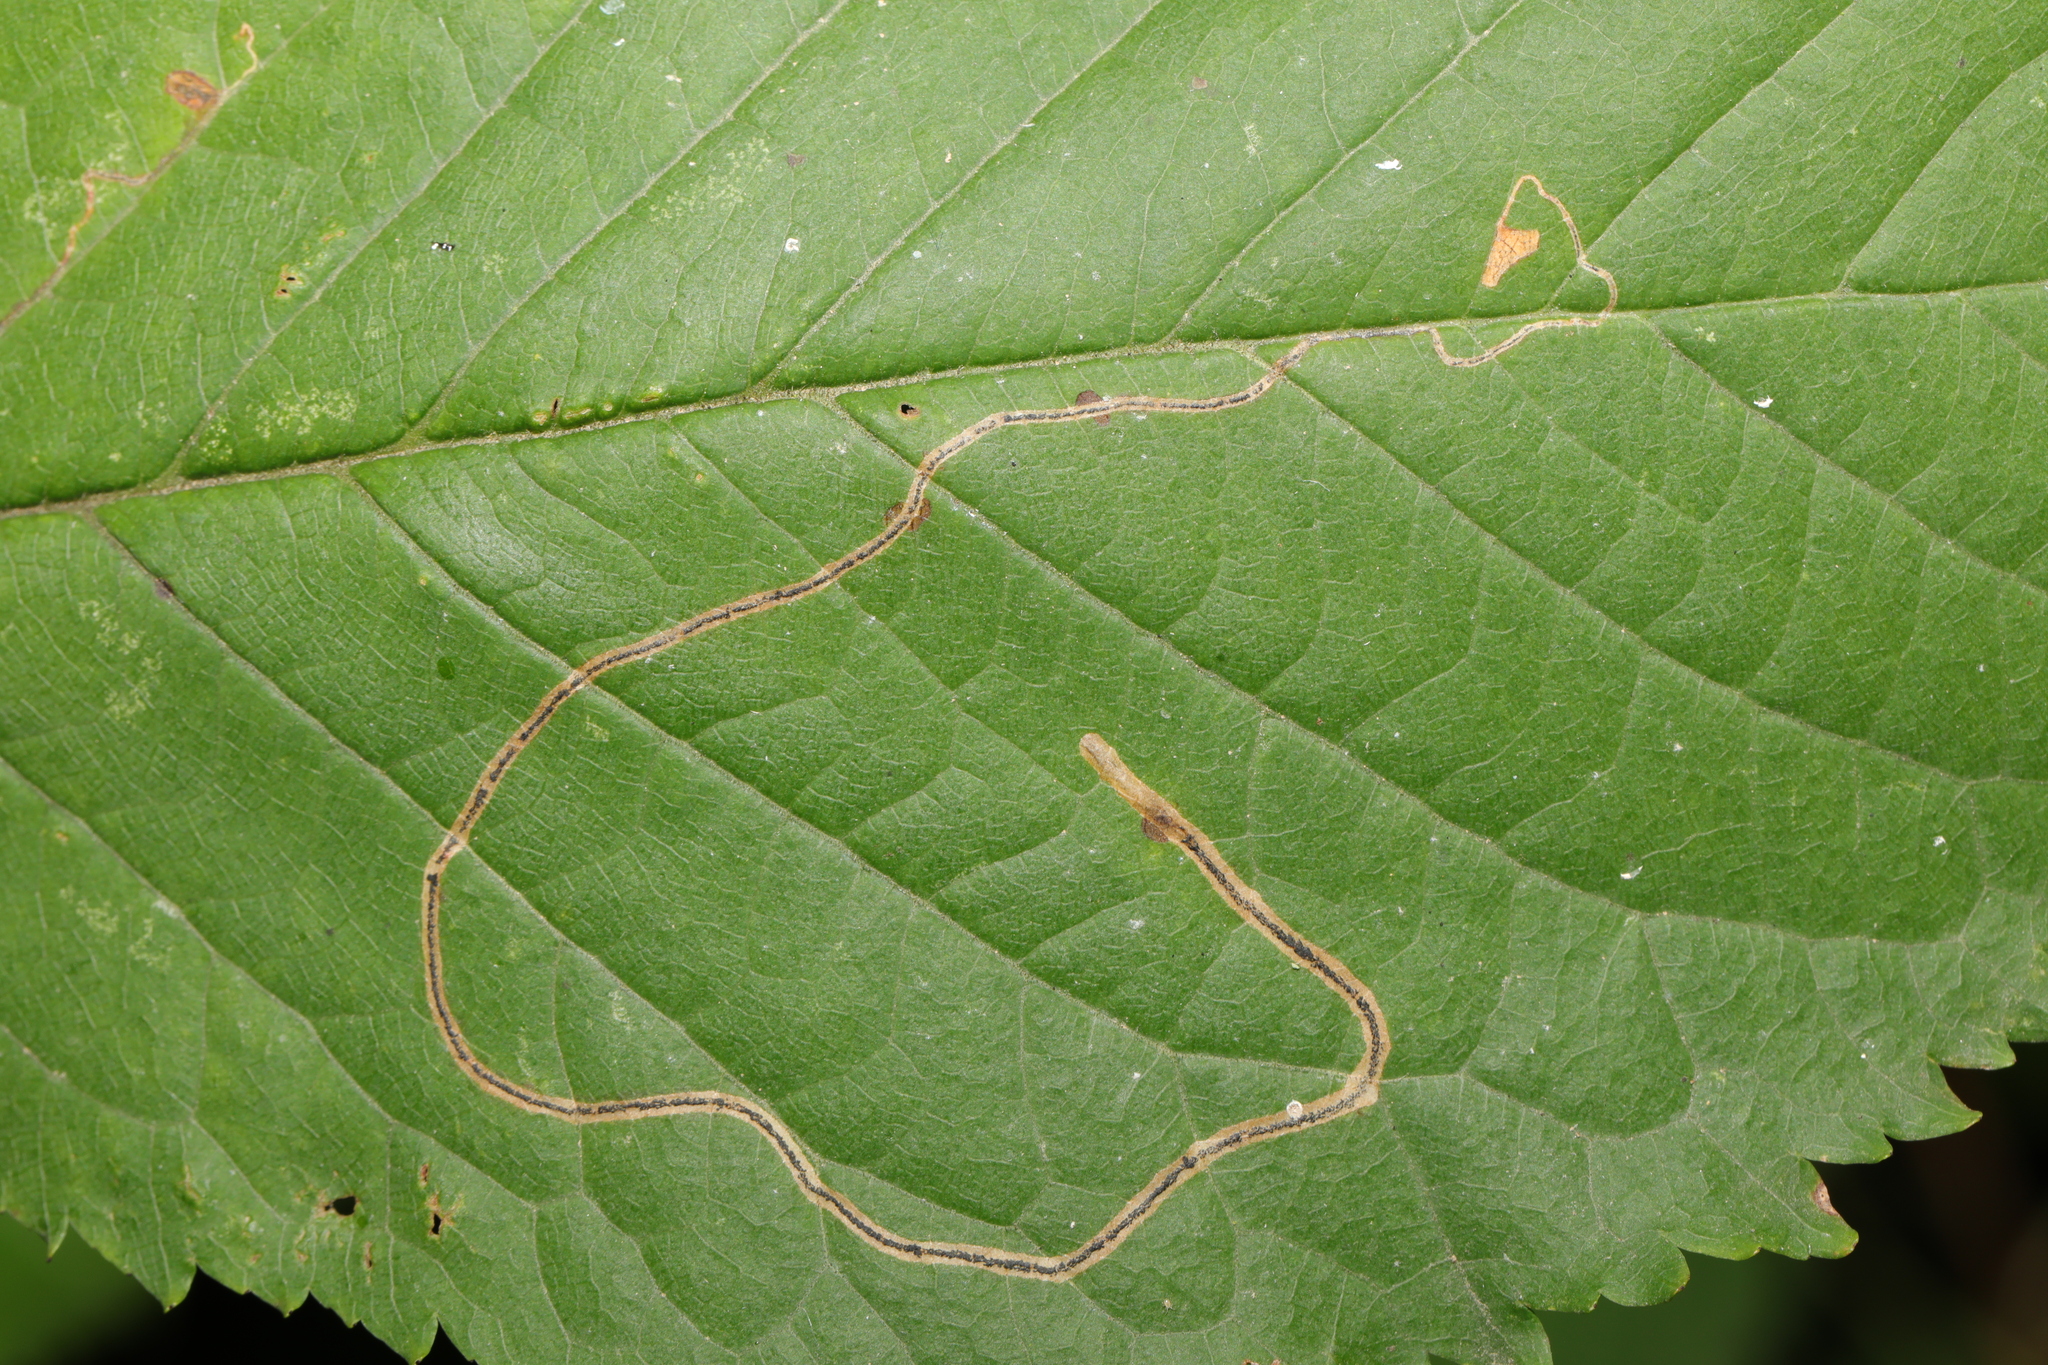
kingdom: Animalia
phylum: Arthropoda
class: Insecta
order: Lepidoptera
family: Lyonetiidae
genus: Lyonetia
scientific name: Lyonetia clerkella
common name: Apple leaf miner
